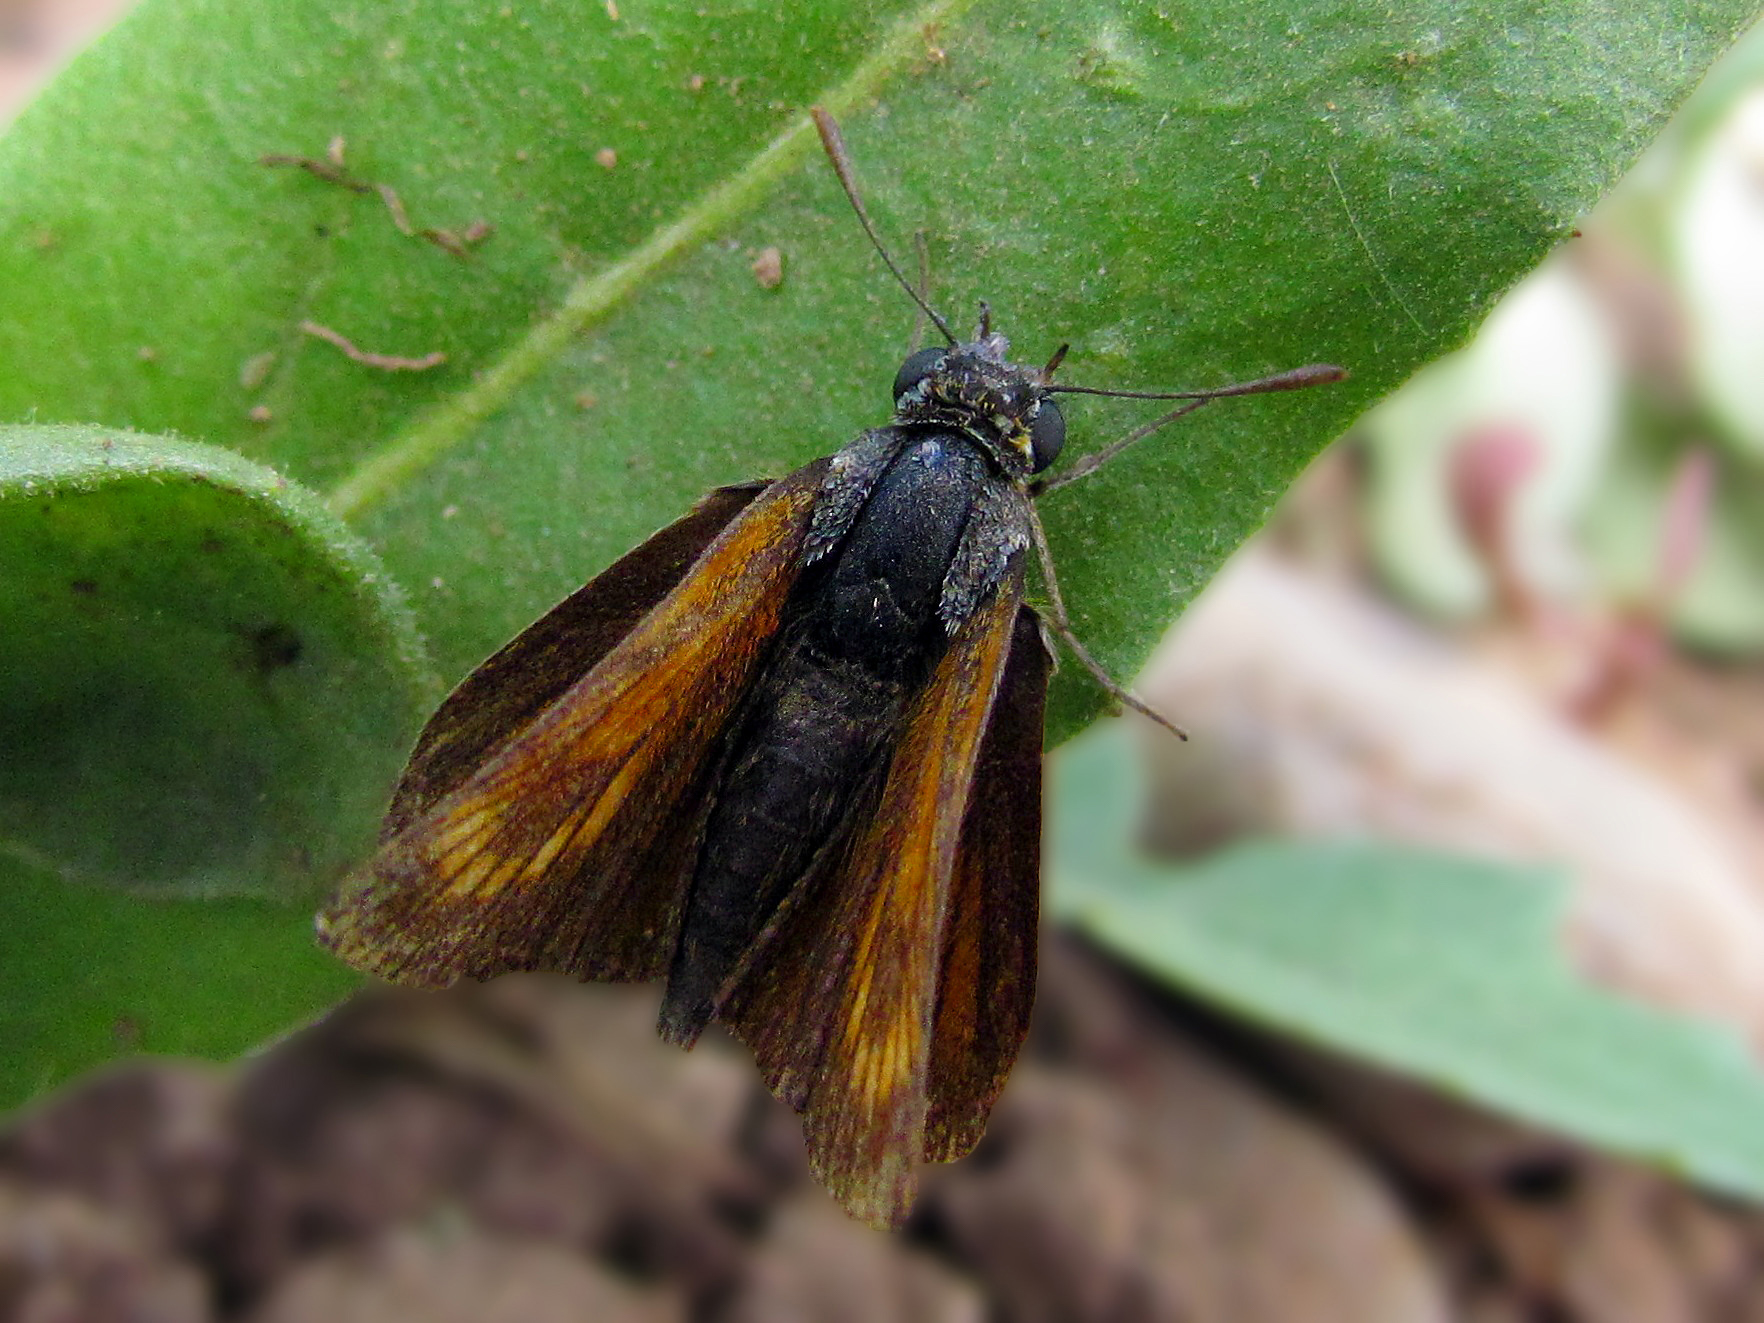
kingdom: Animalia
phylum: Arthropoda
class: Insecta
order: Lepidoptera
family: Hesperiidae
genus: Thymelicus
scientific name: Thymelicus acteon
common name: Lulworth skipper
